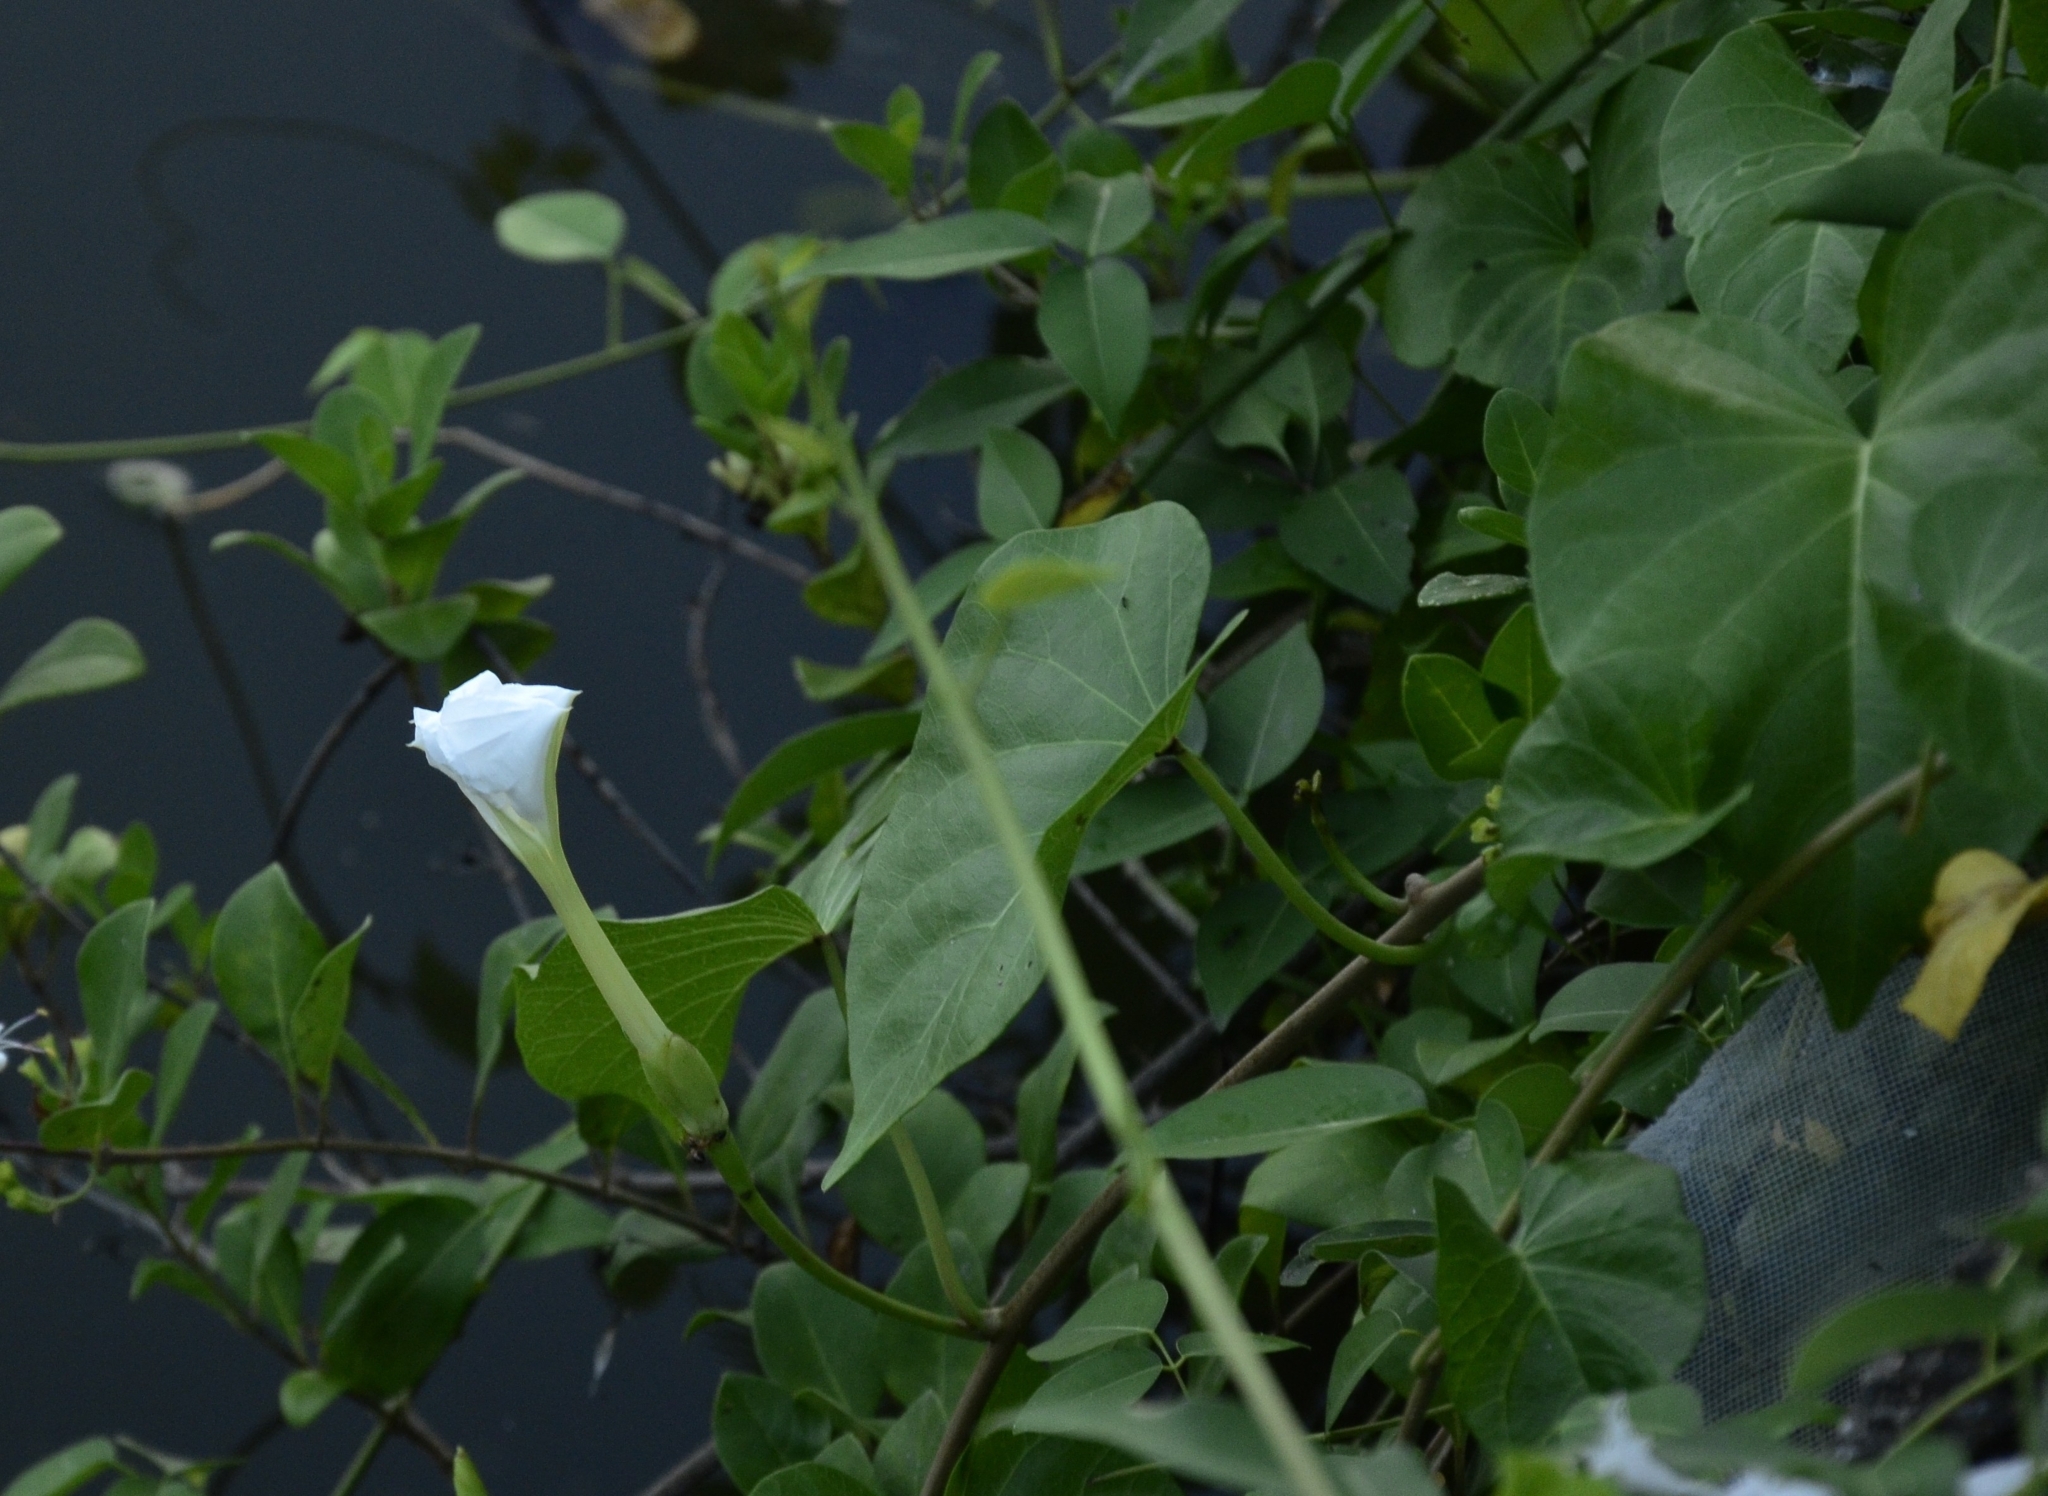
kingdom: Plantae
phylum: Tracheophyta
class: Magnoliopsida
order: Solanales
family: Convolvulaceae
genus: Ipomoea
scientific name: Ipomoea violacea
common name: Beach moonflower
